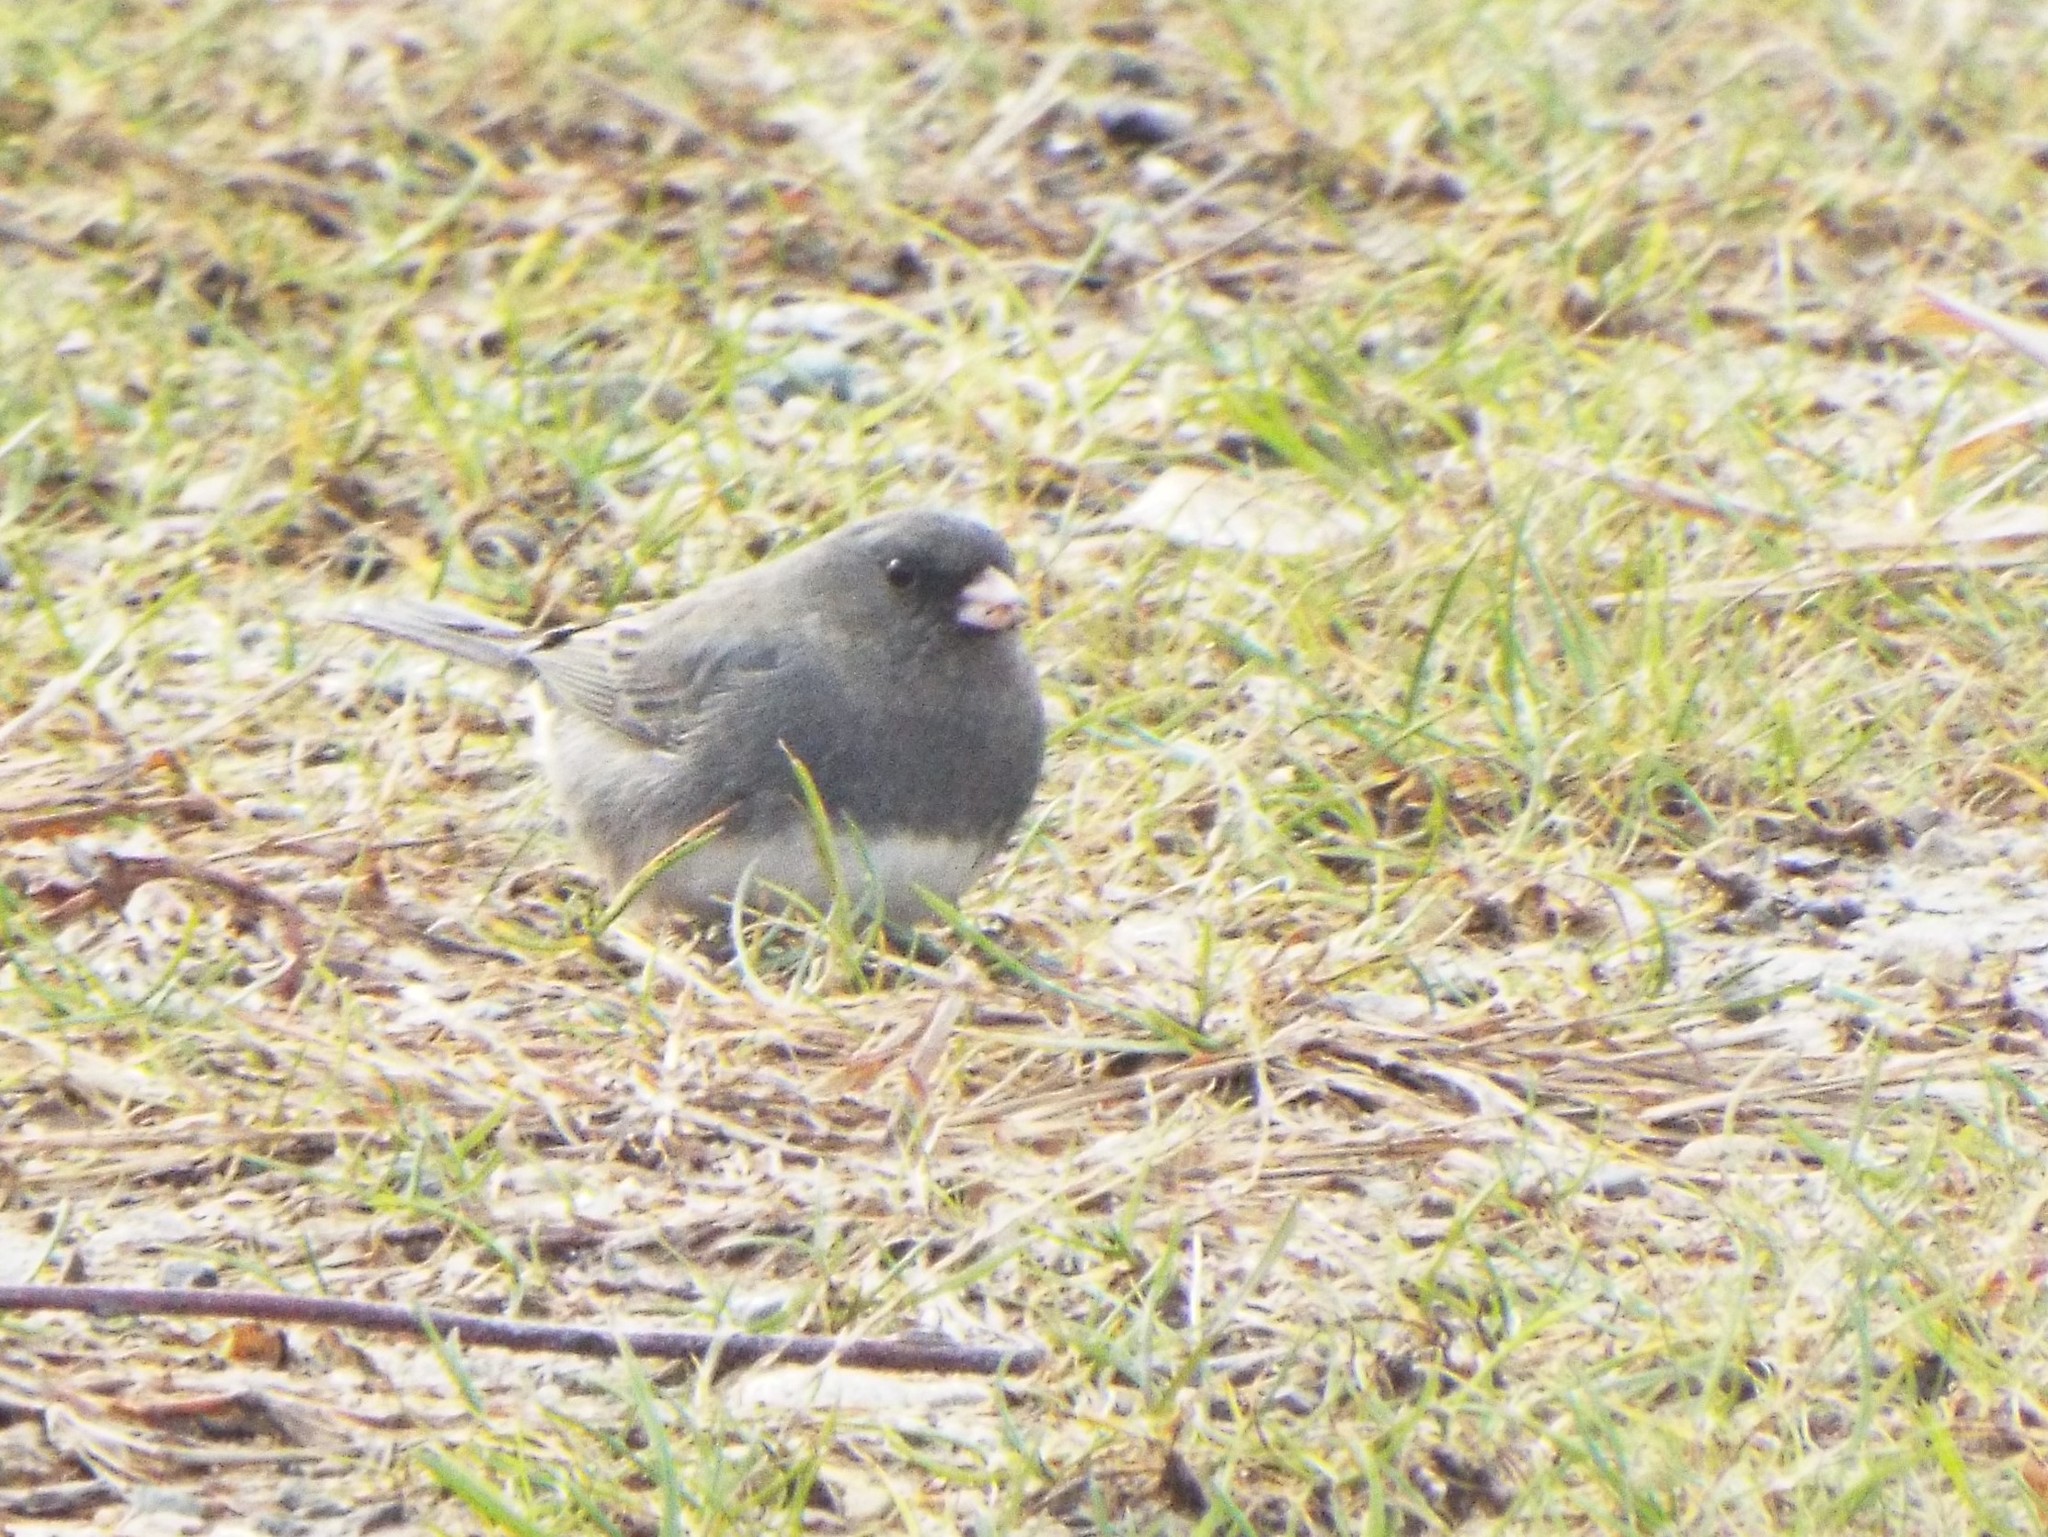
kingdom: Animalia
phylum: Chordata
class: Aves
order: Passeriformes
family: Passerellidae
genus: Junco
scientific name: Junco hyemalis
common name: Dark-eyed junco
